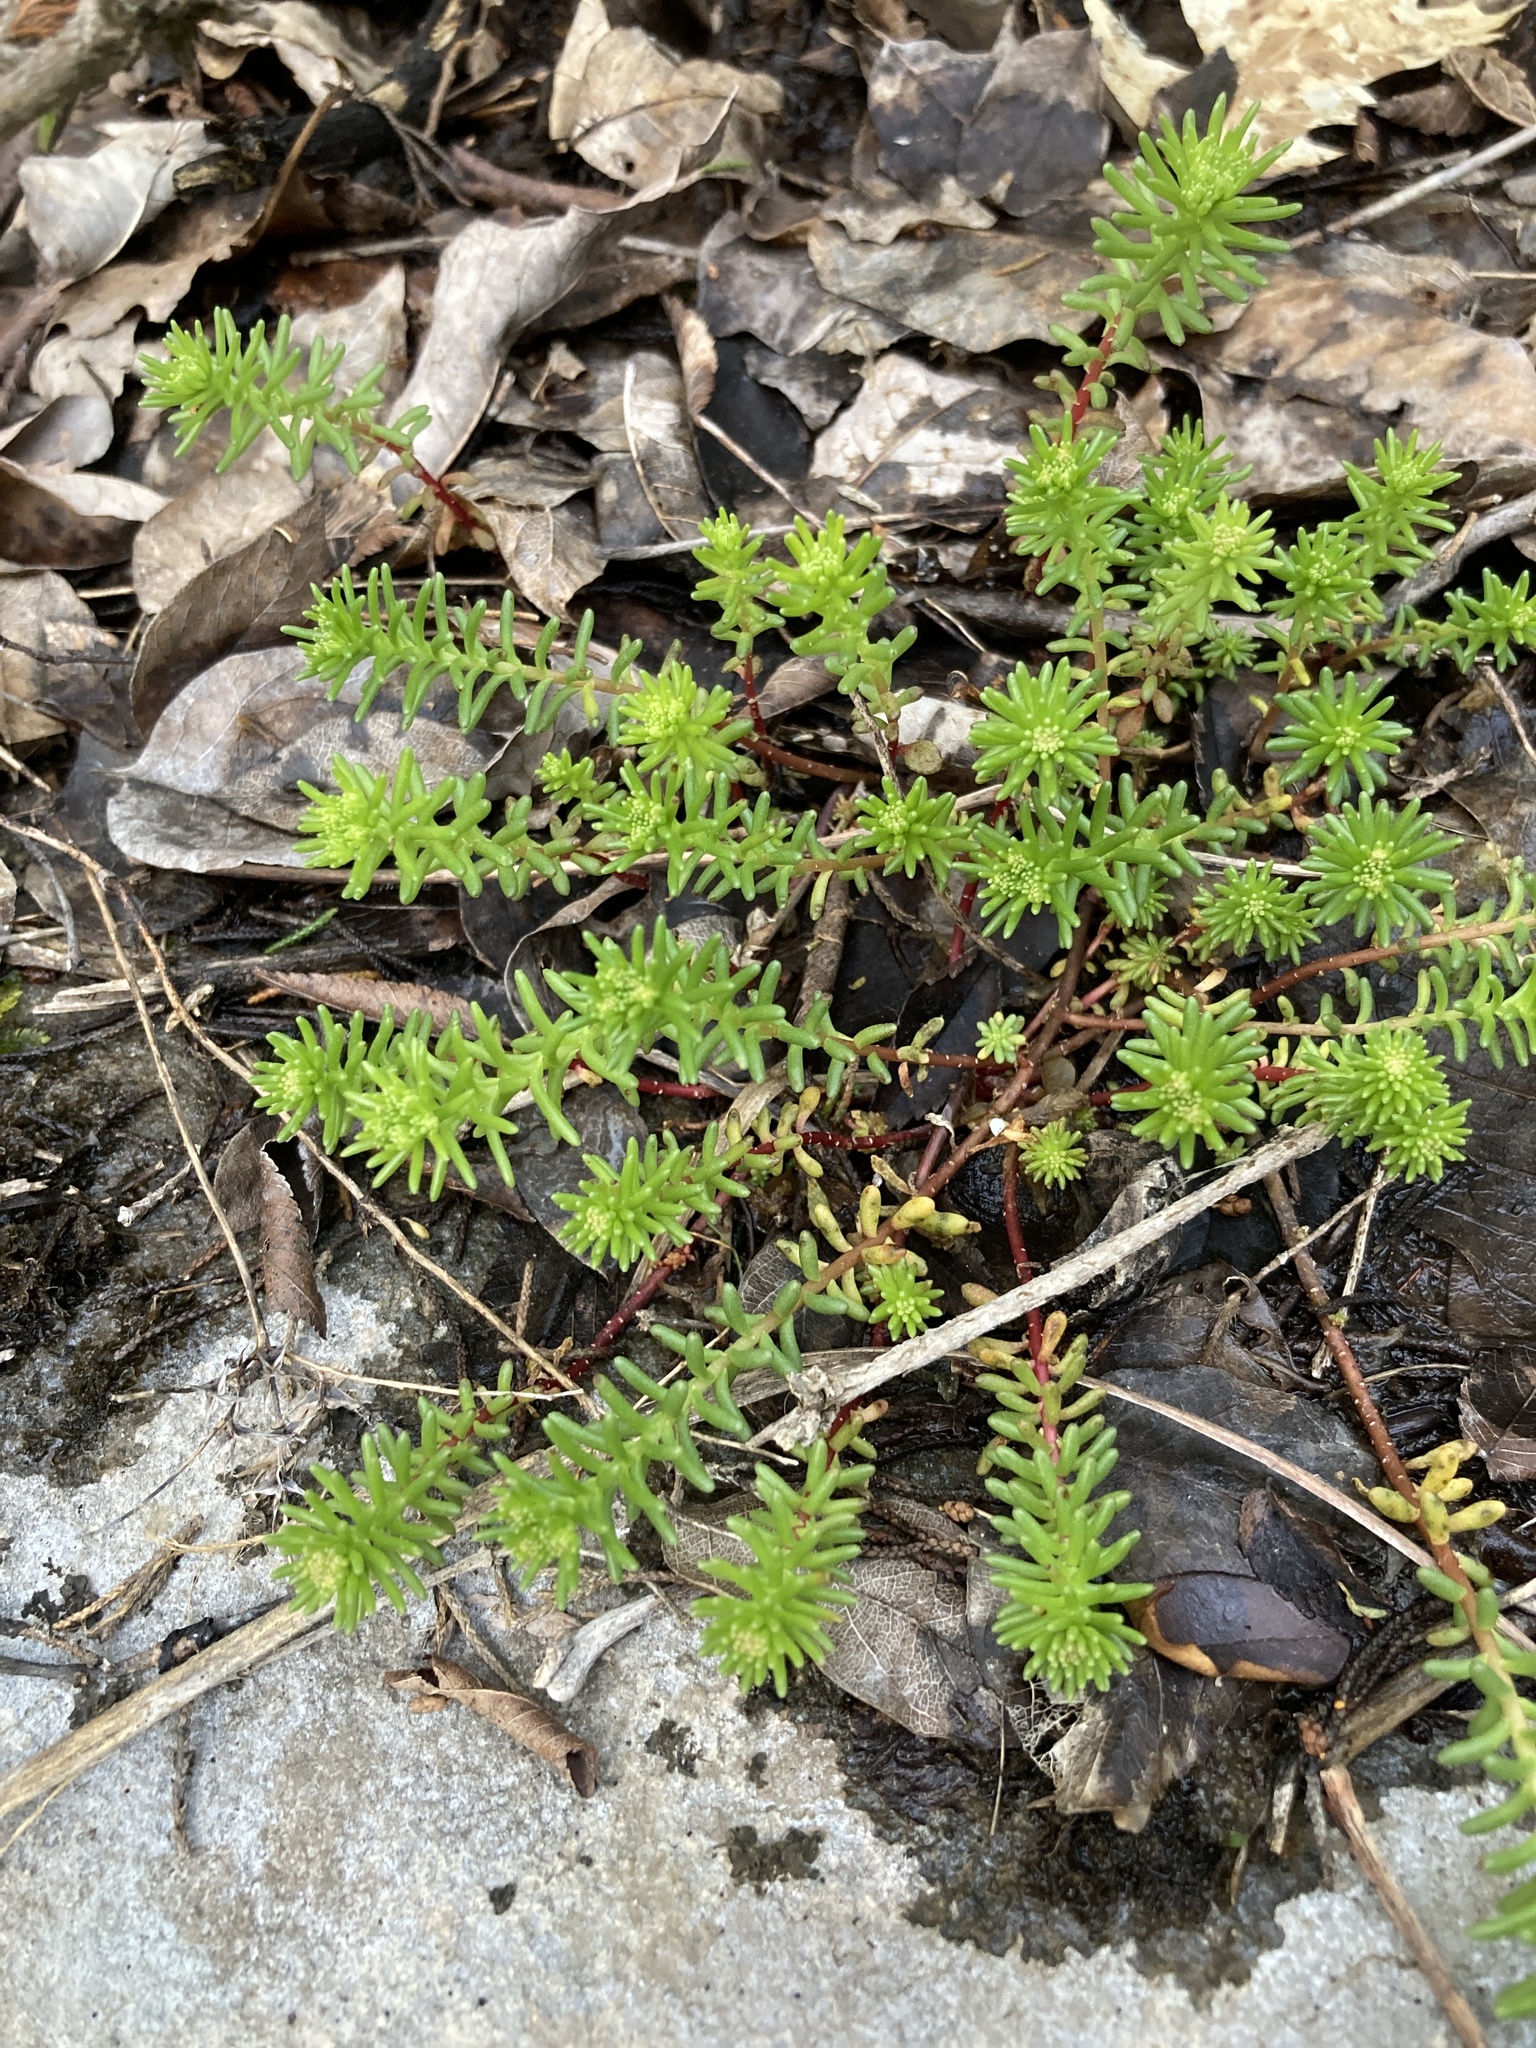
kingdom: Plantae
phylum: Tracheophyta
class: Magnoliopsida
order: Saxifragales
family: Crassulaceae
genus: Sedum
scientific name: Sedum pulchellum
